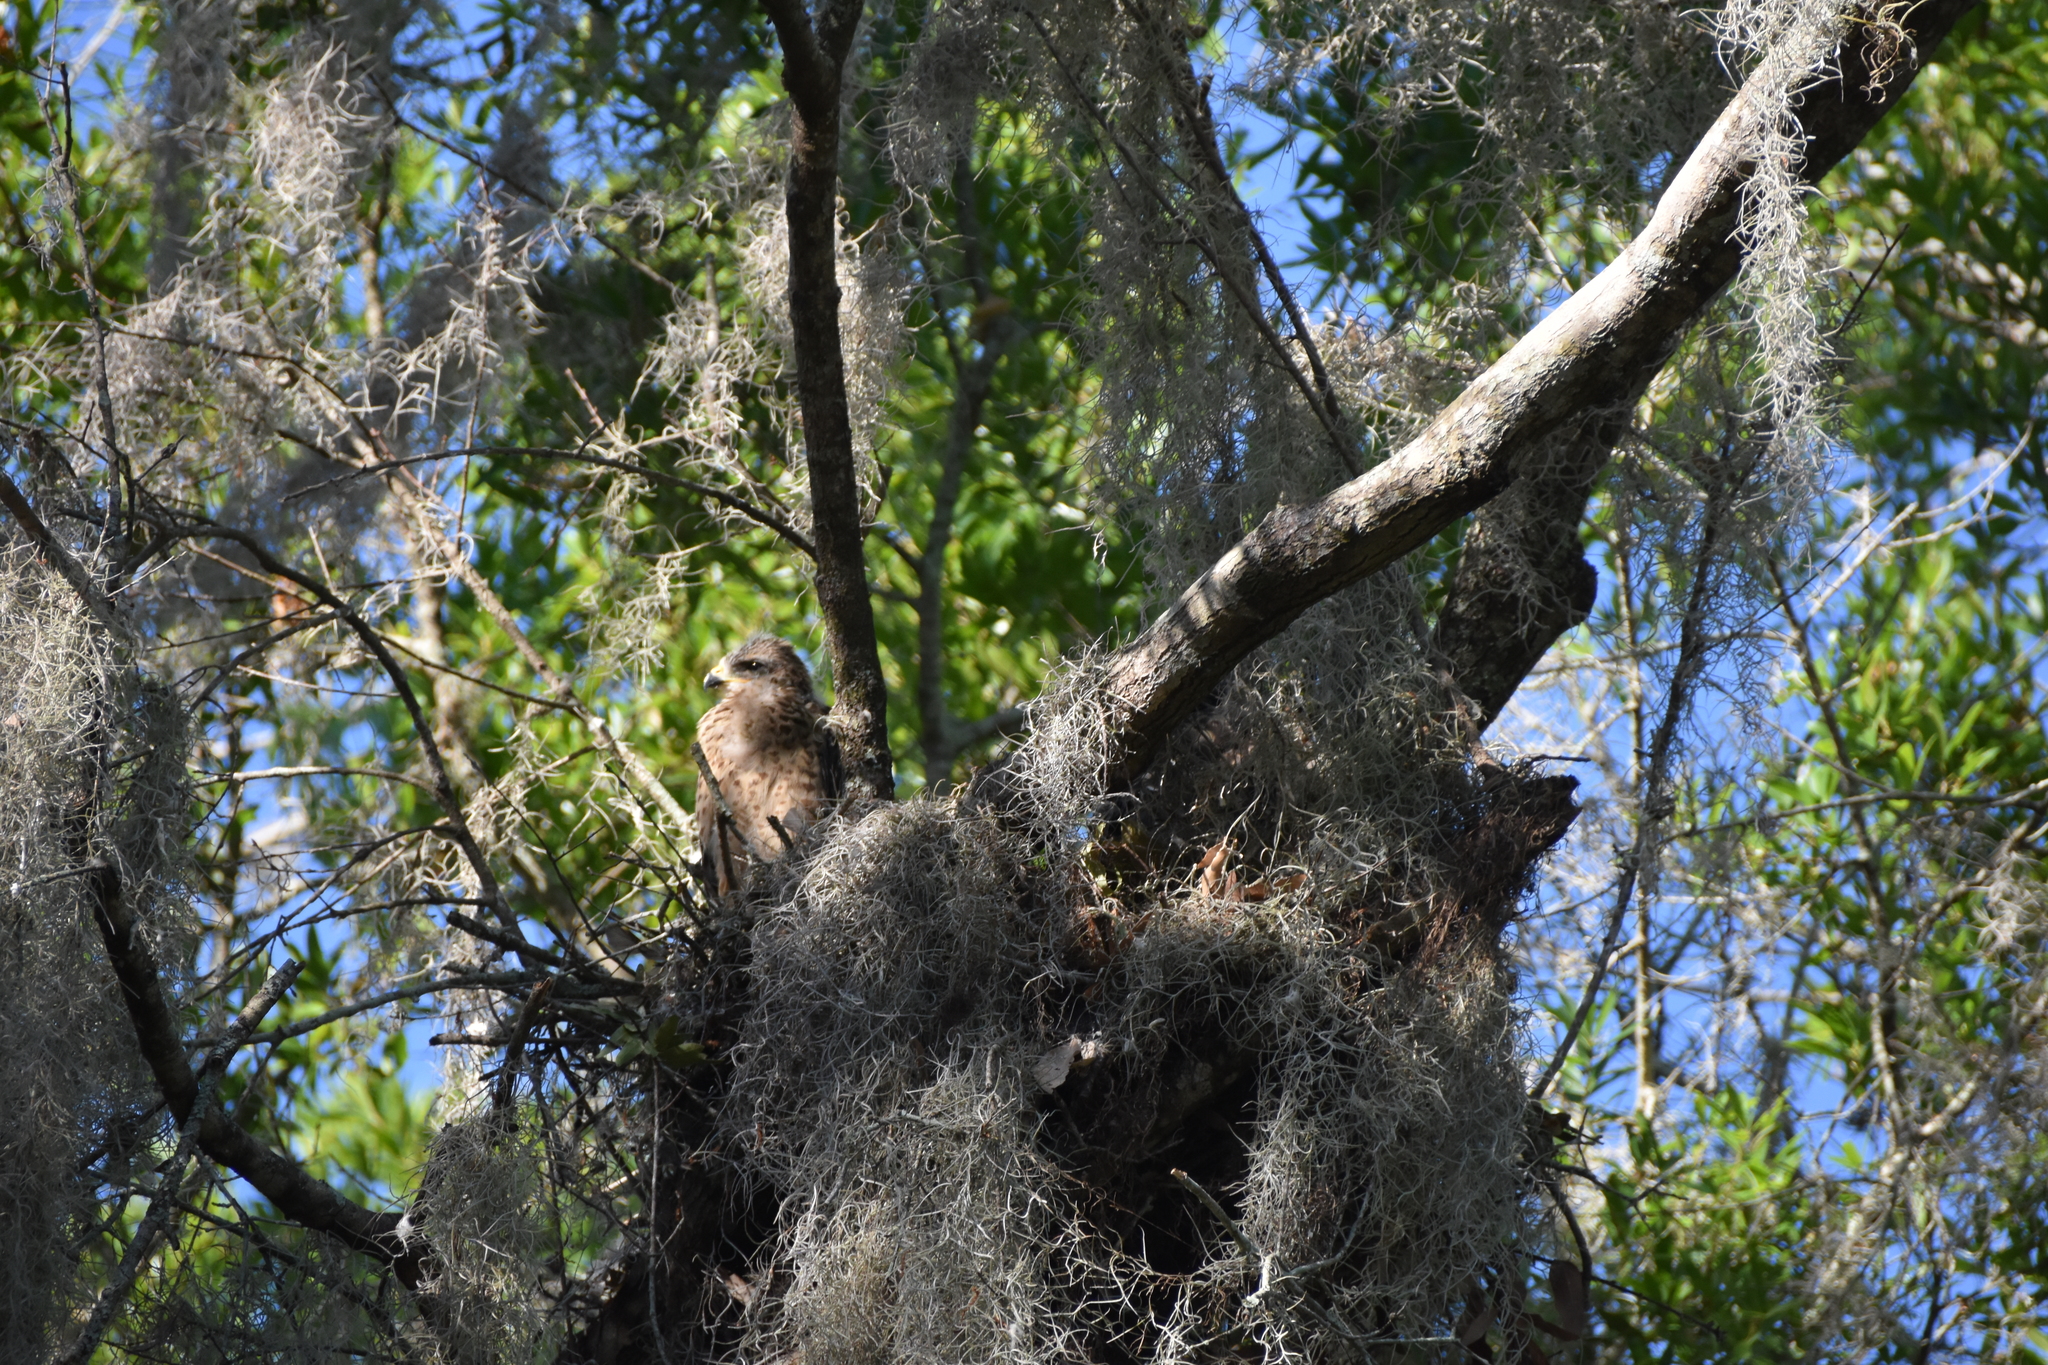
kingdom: Animalia
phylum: Chordata
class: Aves
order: Accipitriformes
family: Accipitridae
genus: Buteo
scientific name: Buteo lineatus
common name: Red-shouldered hawk
